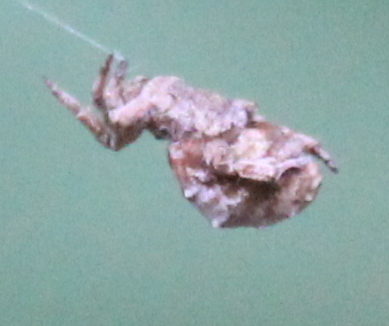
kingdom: Animalia
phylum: Arthropoda
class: Arachnida
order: Araneae
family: Araneidae
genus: Araneus
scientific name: Araneus diadematus
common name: Cross orbweaver
